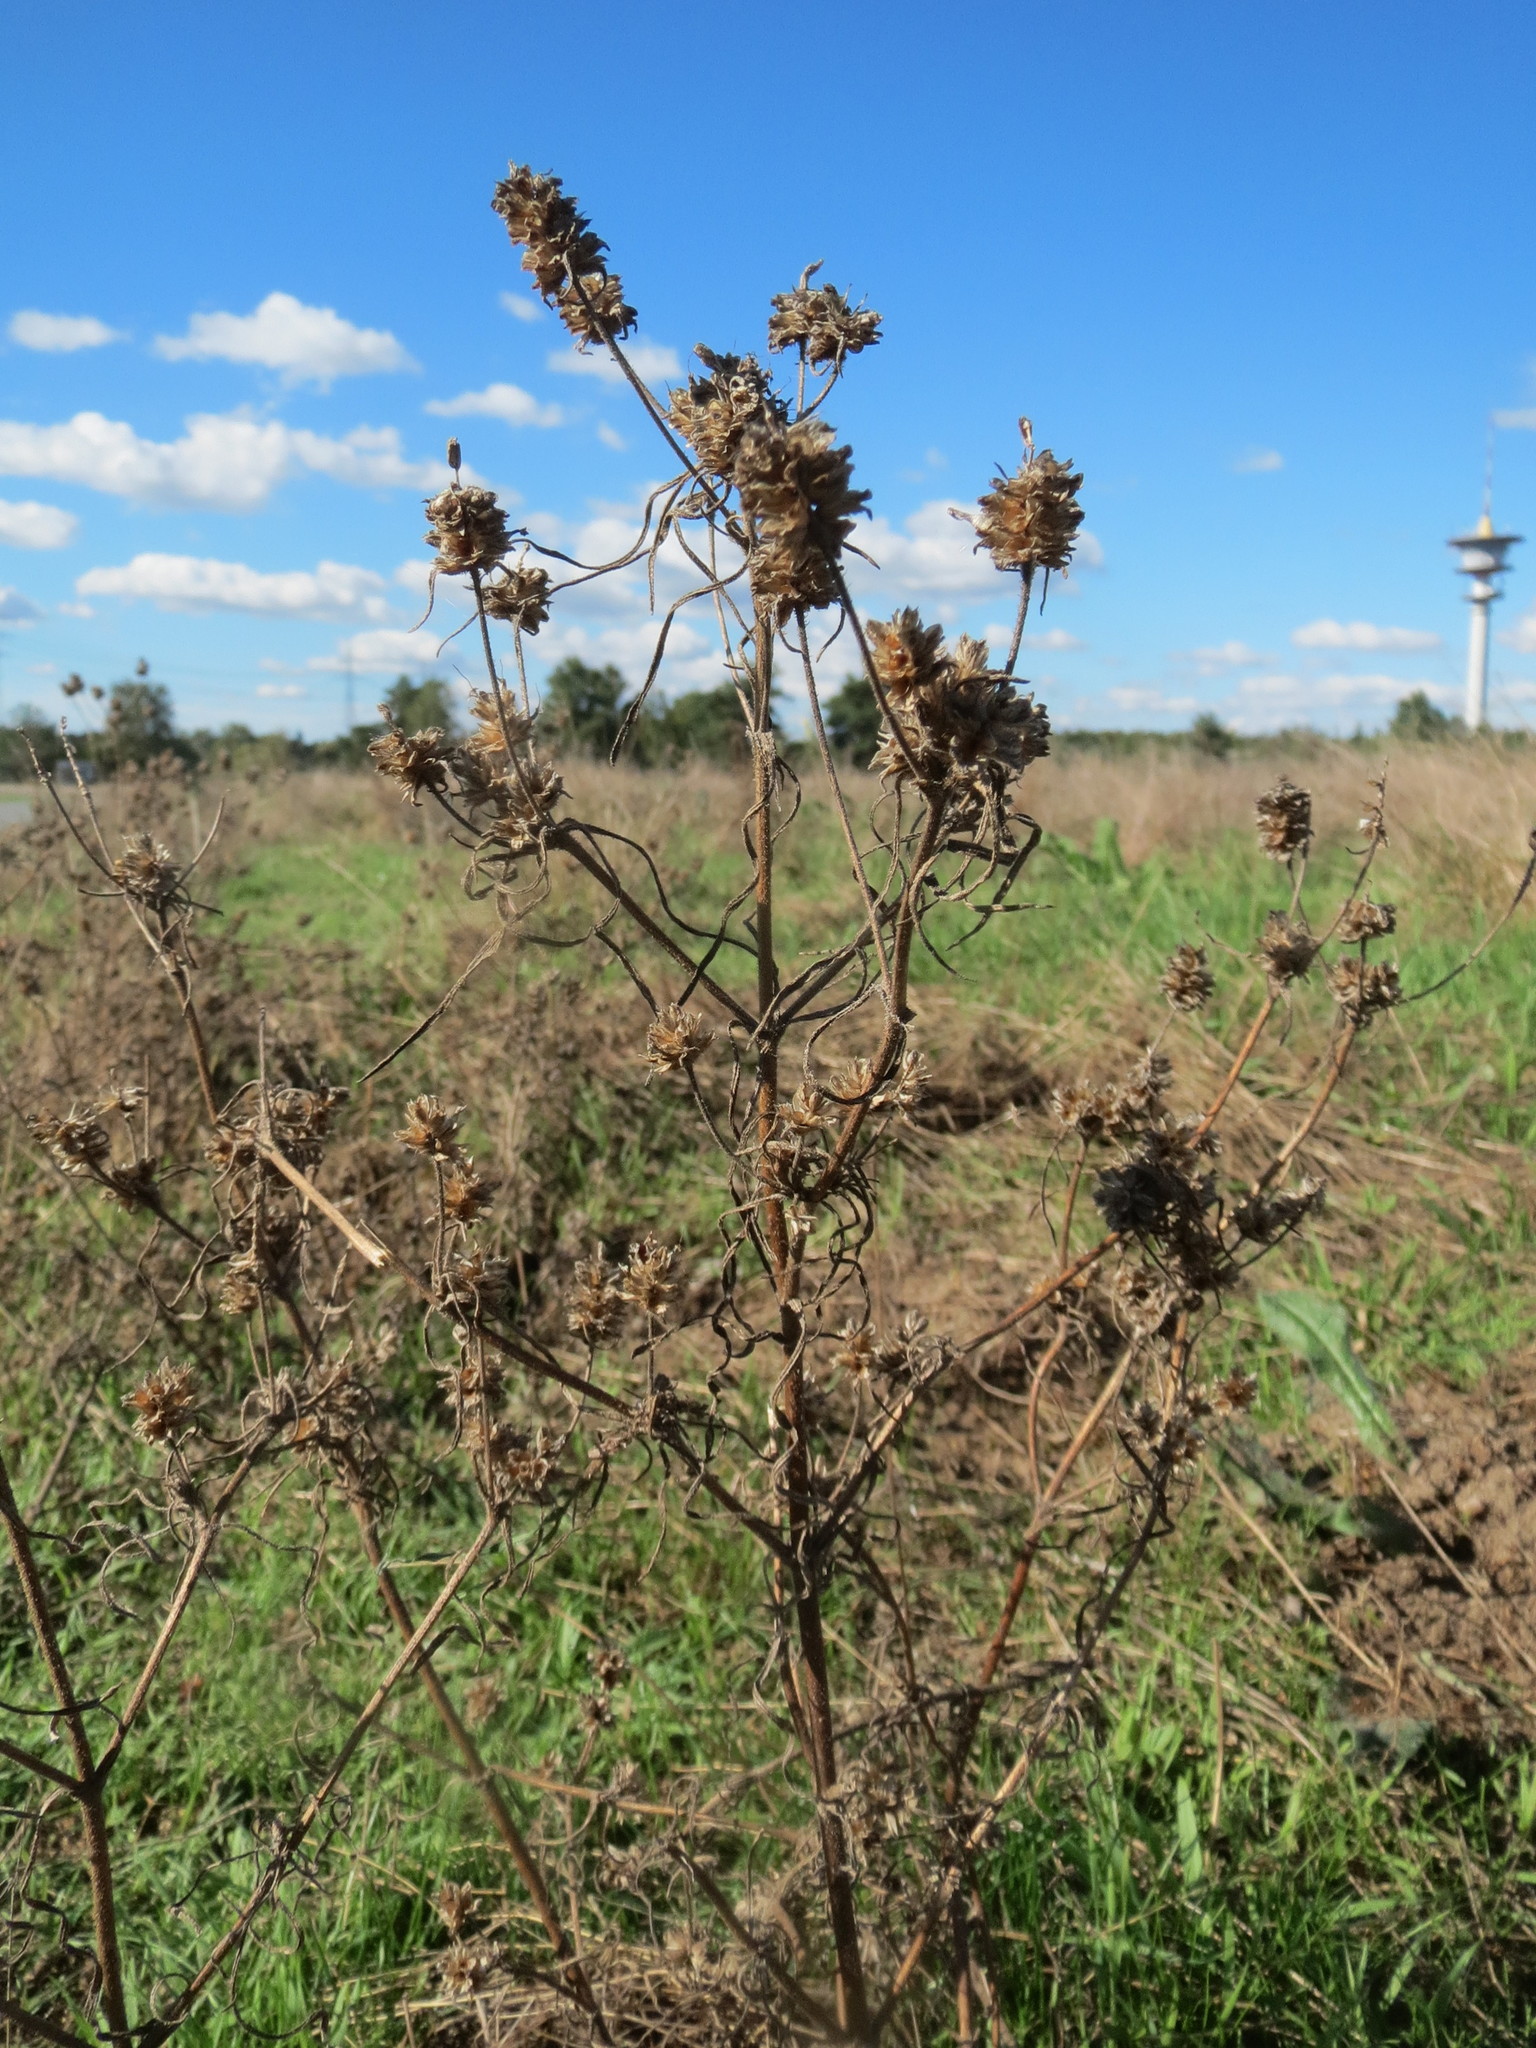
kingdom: Plantae
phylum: Tracheophyta
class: Magnoliopsida
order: Lamiales
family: Plantaginaceae
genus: Plantago
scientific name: Plantago arenaria
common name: Branched plantain
